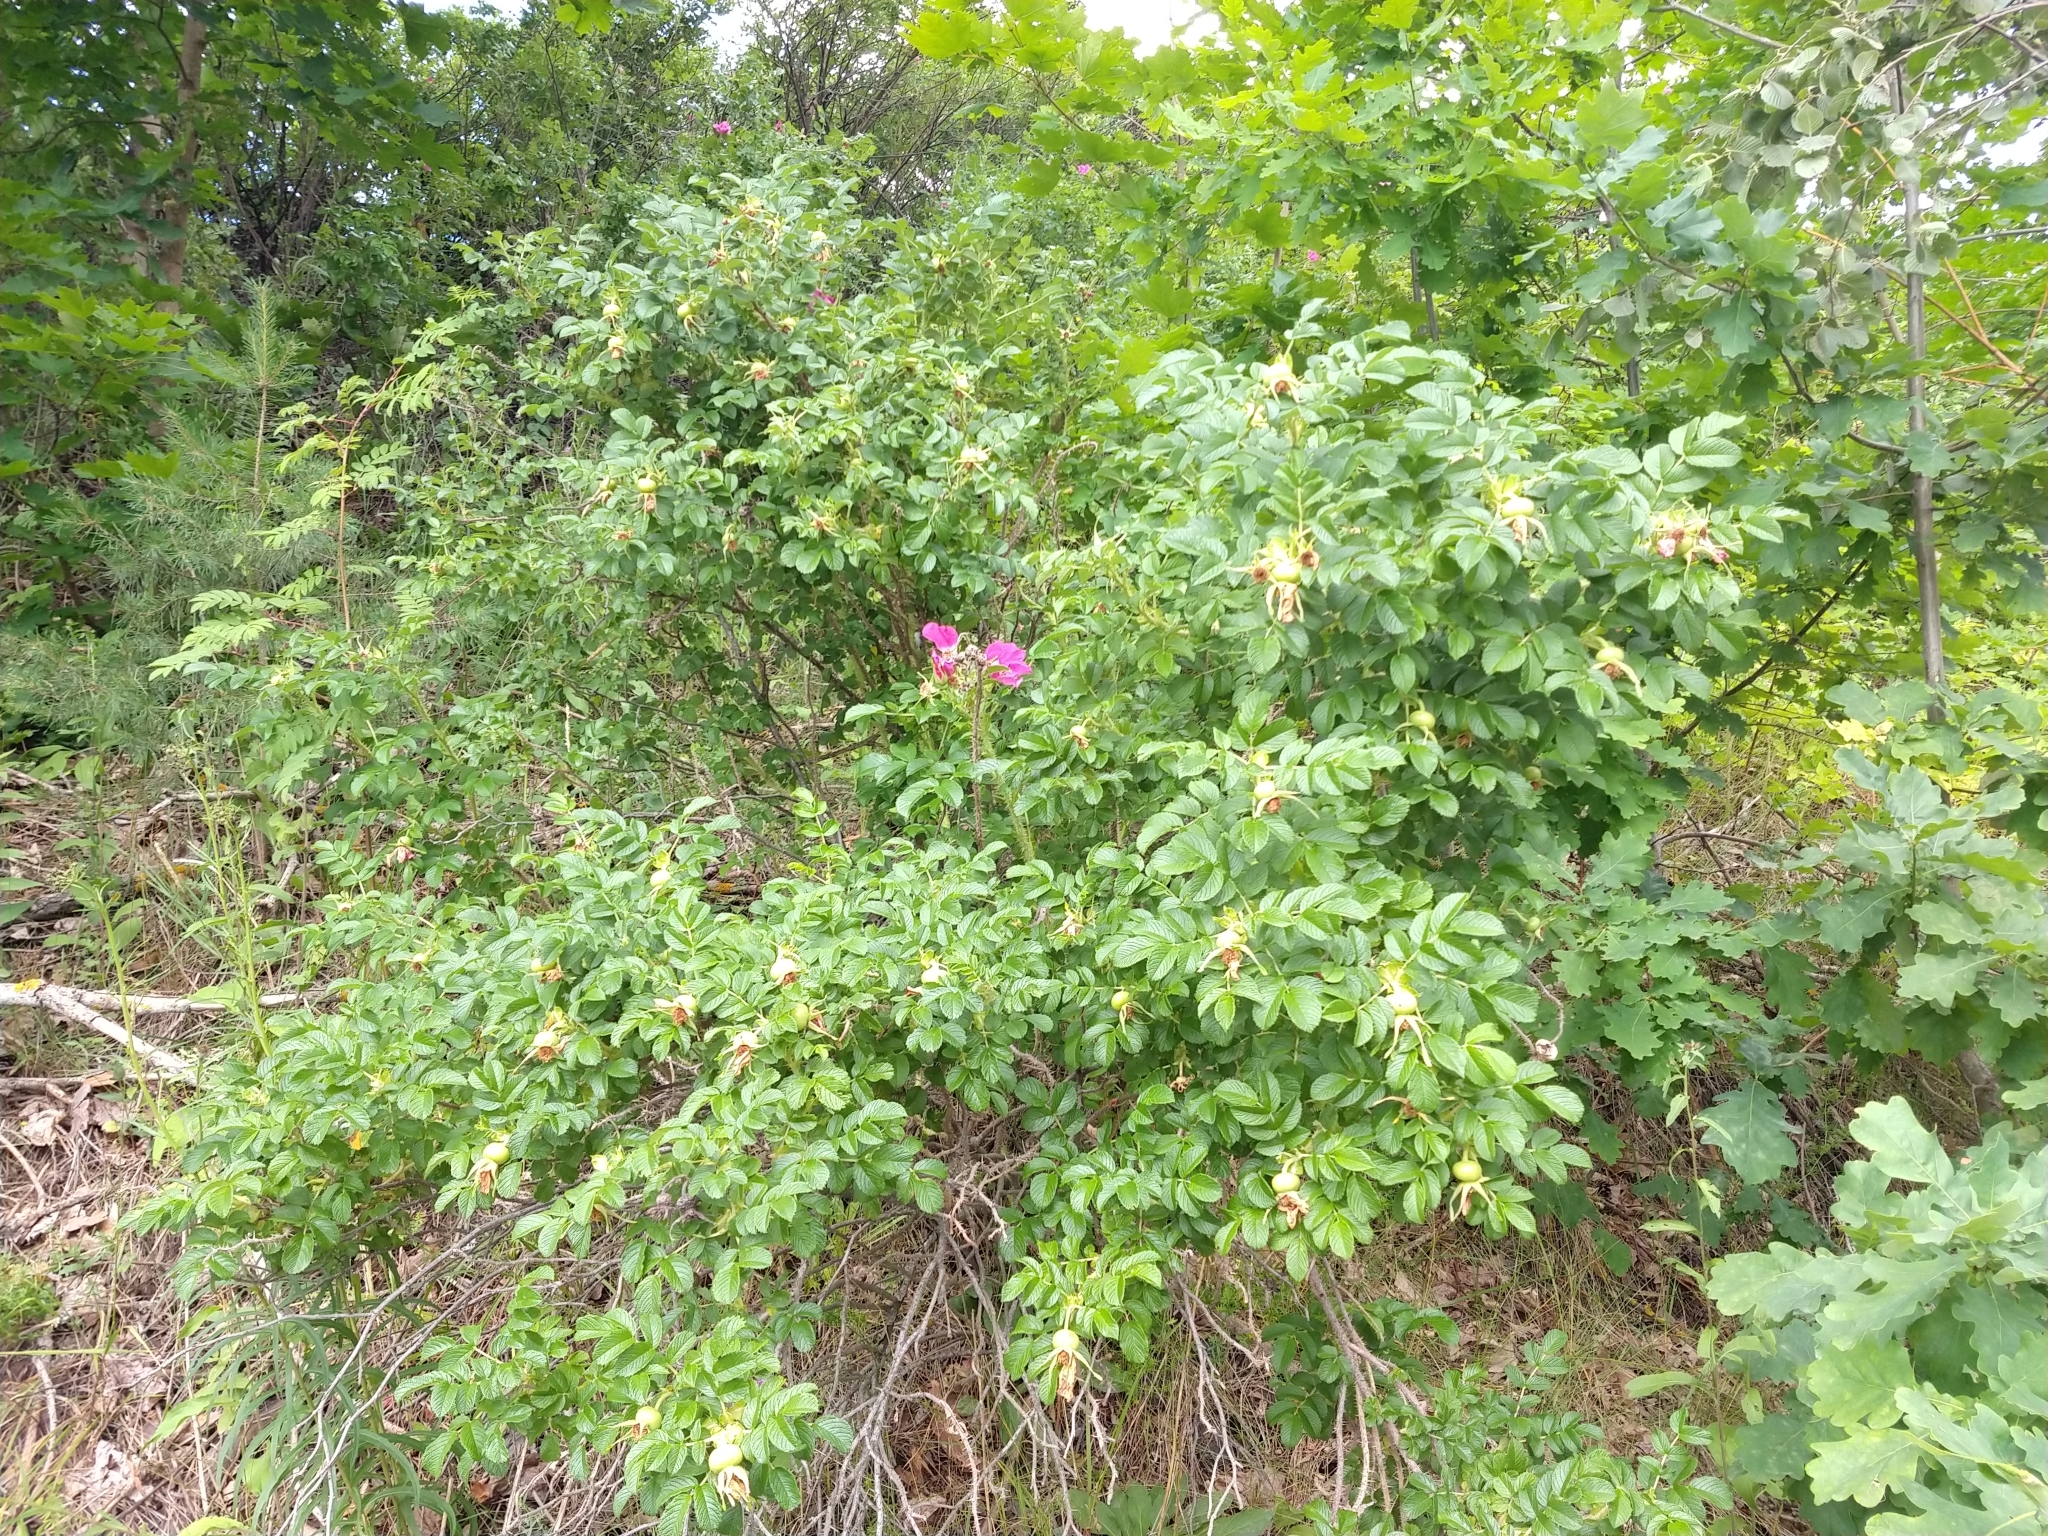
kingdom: Plantae
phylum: Tracheophyta
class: Magnoliopsida
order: Rosales
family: Rosaceae
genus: Rosa
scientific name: Rosa rugosa
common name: Japanese rose
